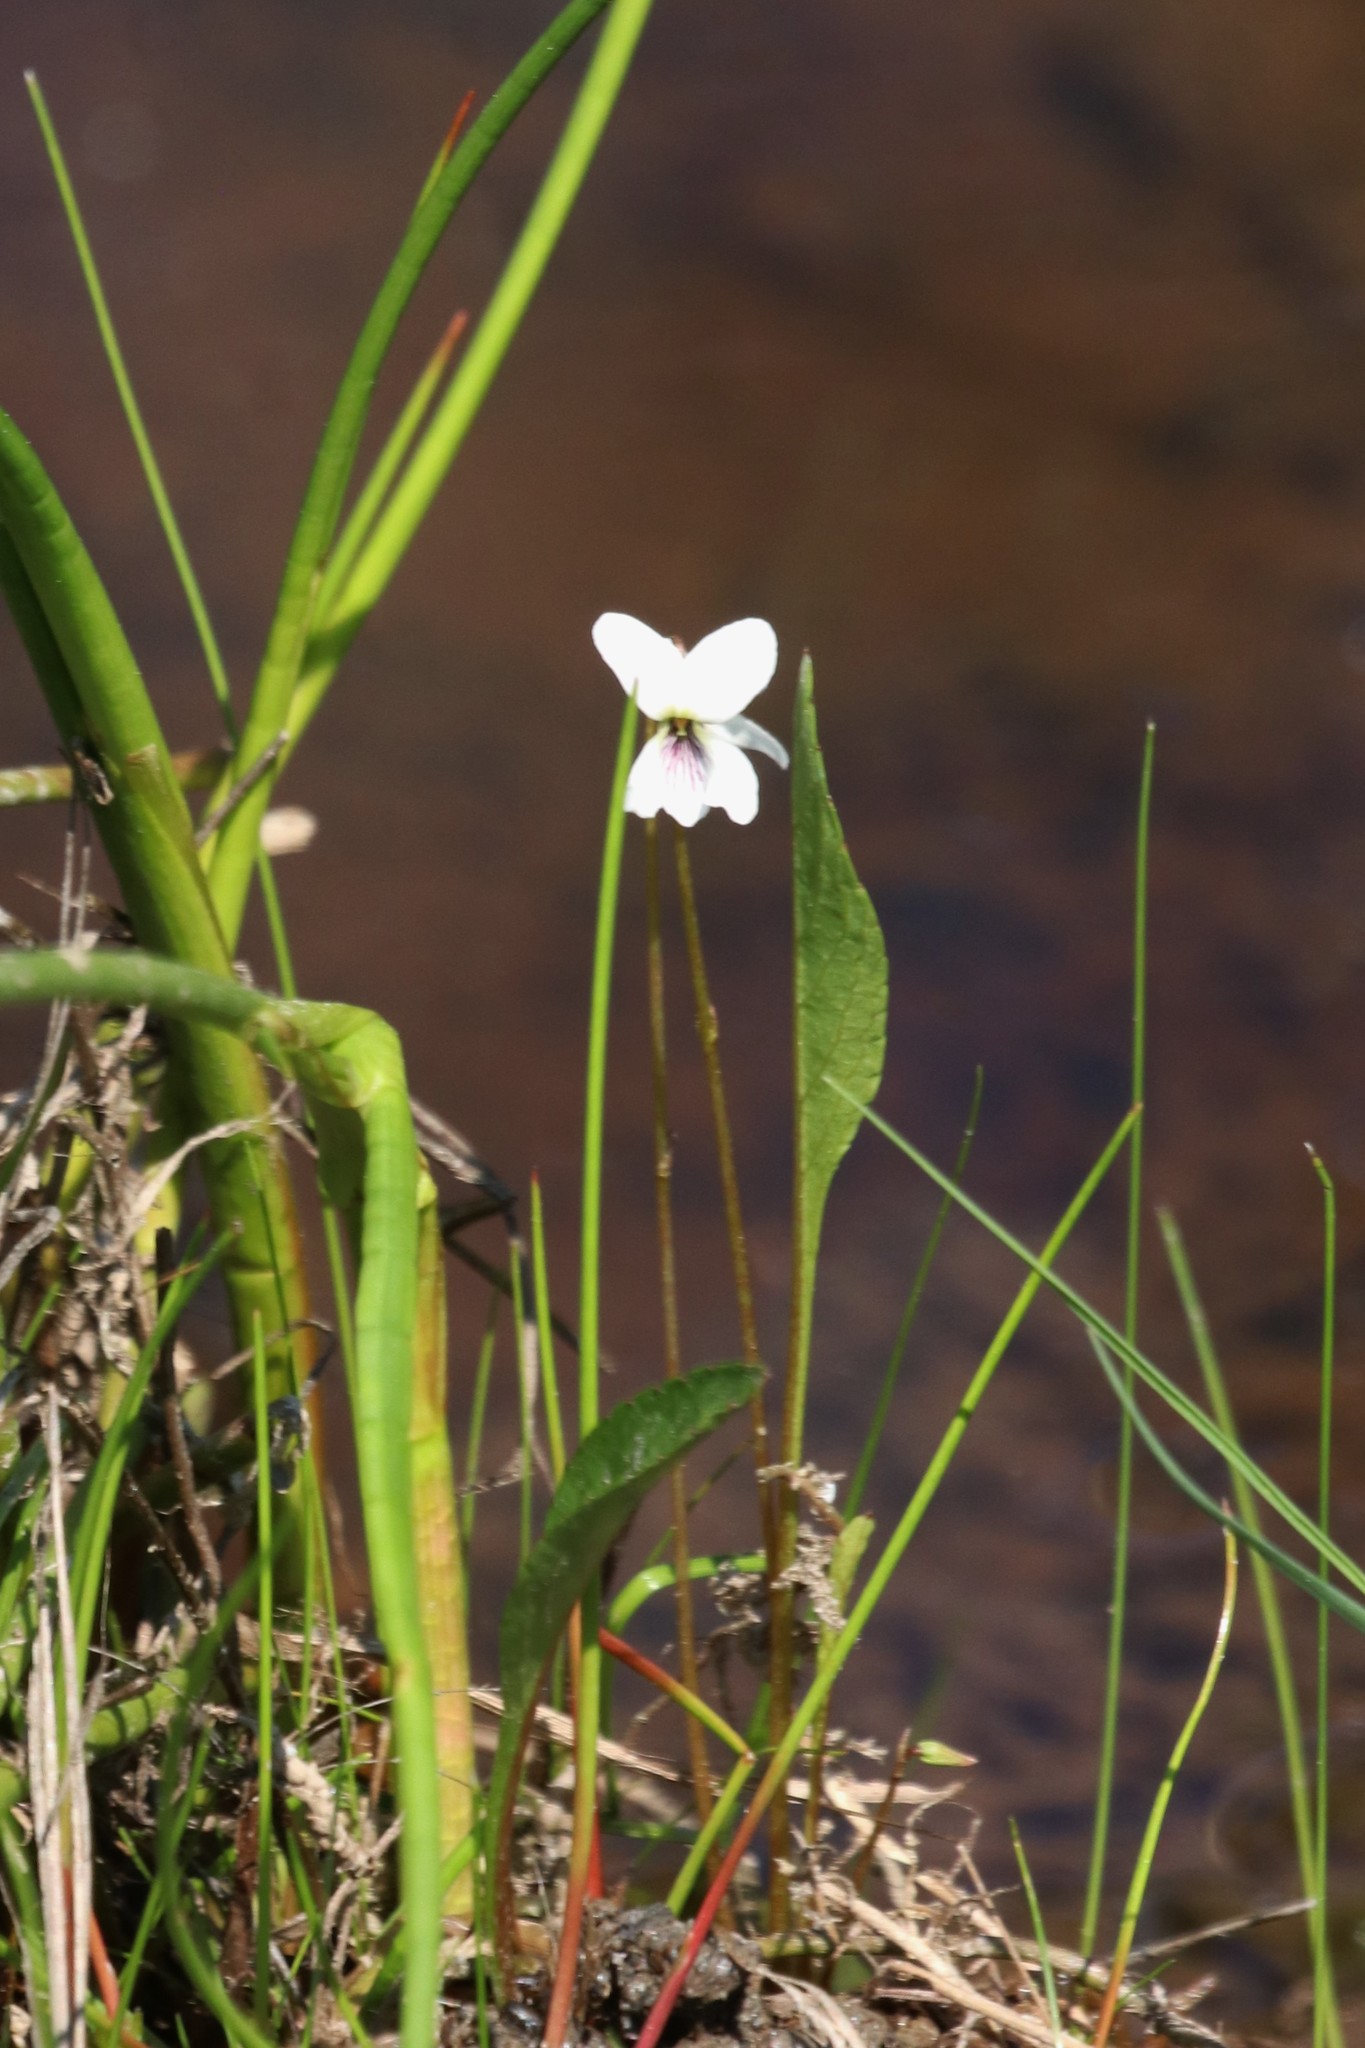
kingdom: Plantae
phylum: Tracheophyta
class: Magnoliopsida
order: Malpighiales
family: Violaceae
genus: Viola
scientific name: Viola lanceolata
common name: Bog white violet
